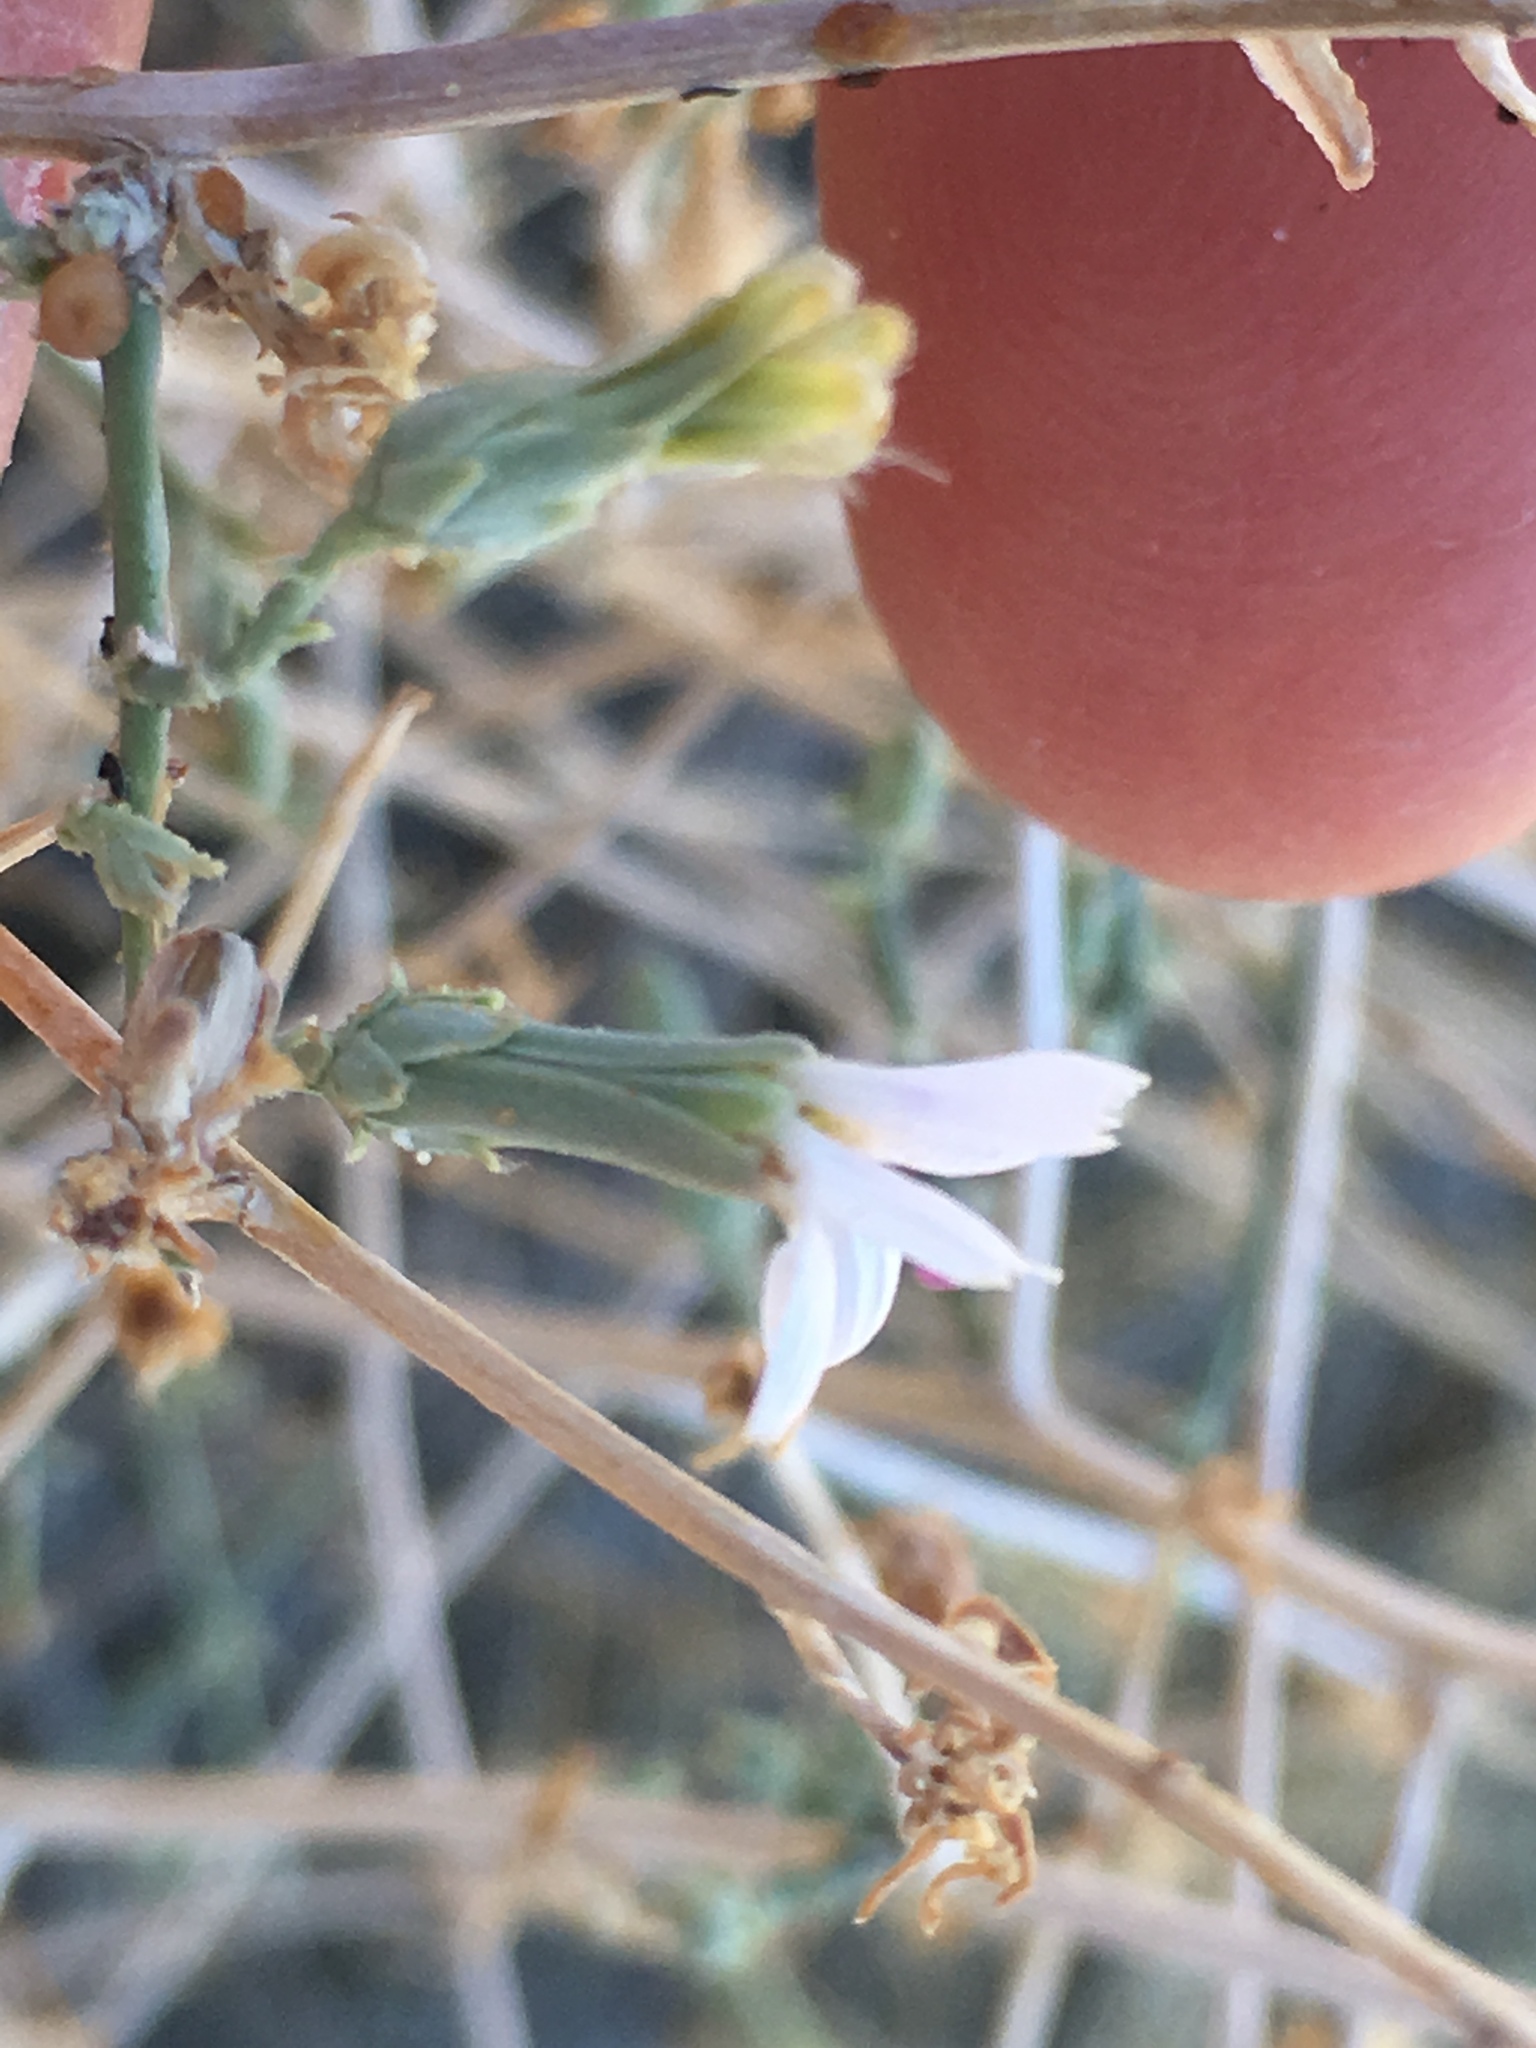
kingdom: Plantae
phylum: Tracheophyta
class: Magnoliopsida
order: Asterales
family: Asteraceae
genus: Stephanomeria
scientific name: Stephanomeria pauciflora
